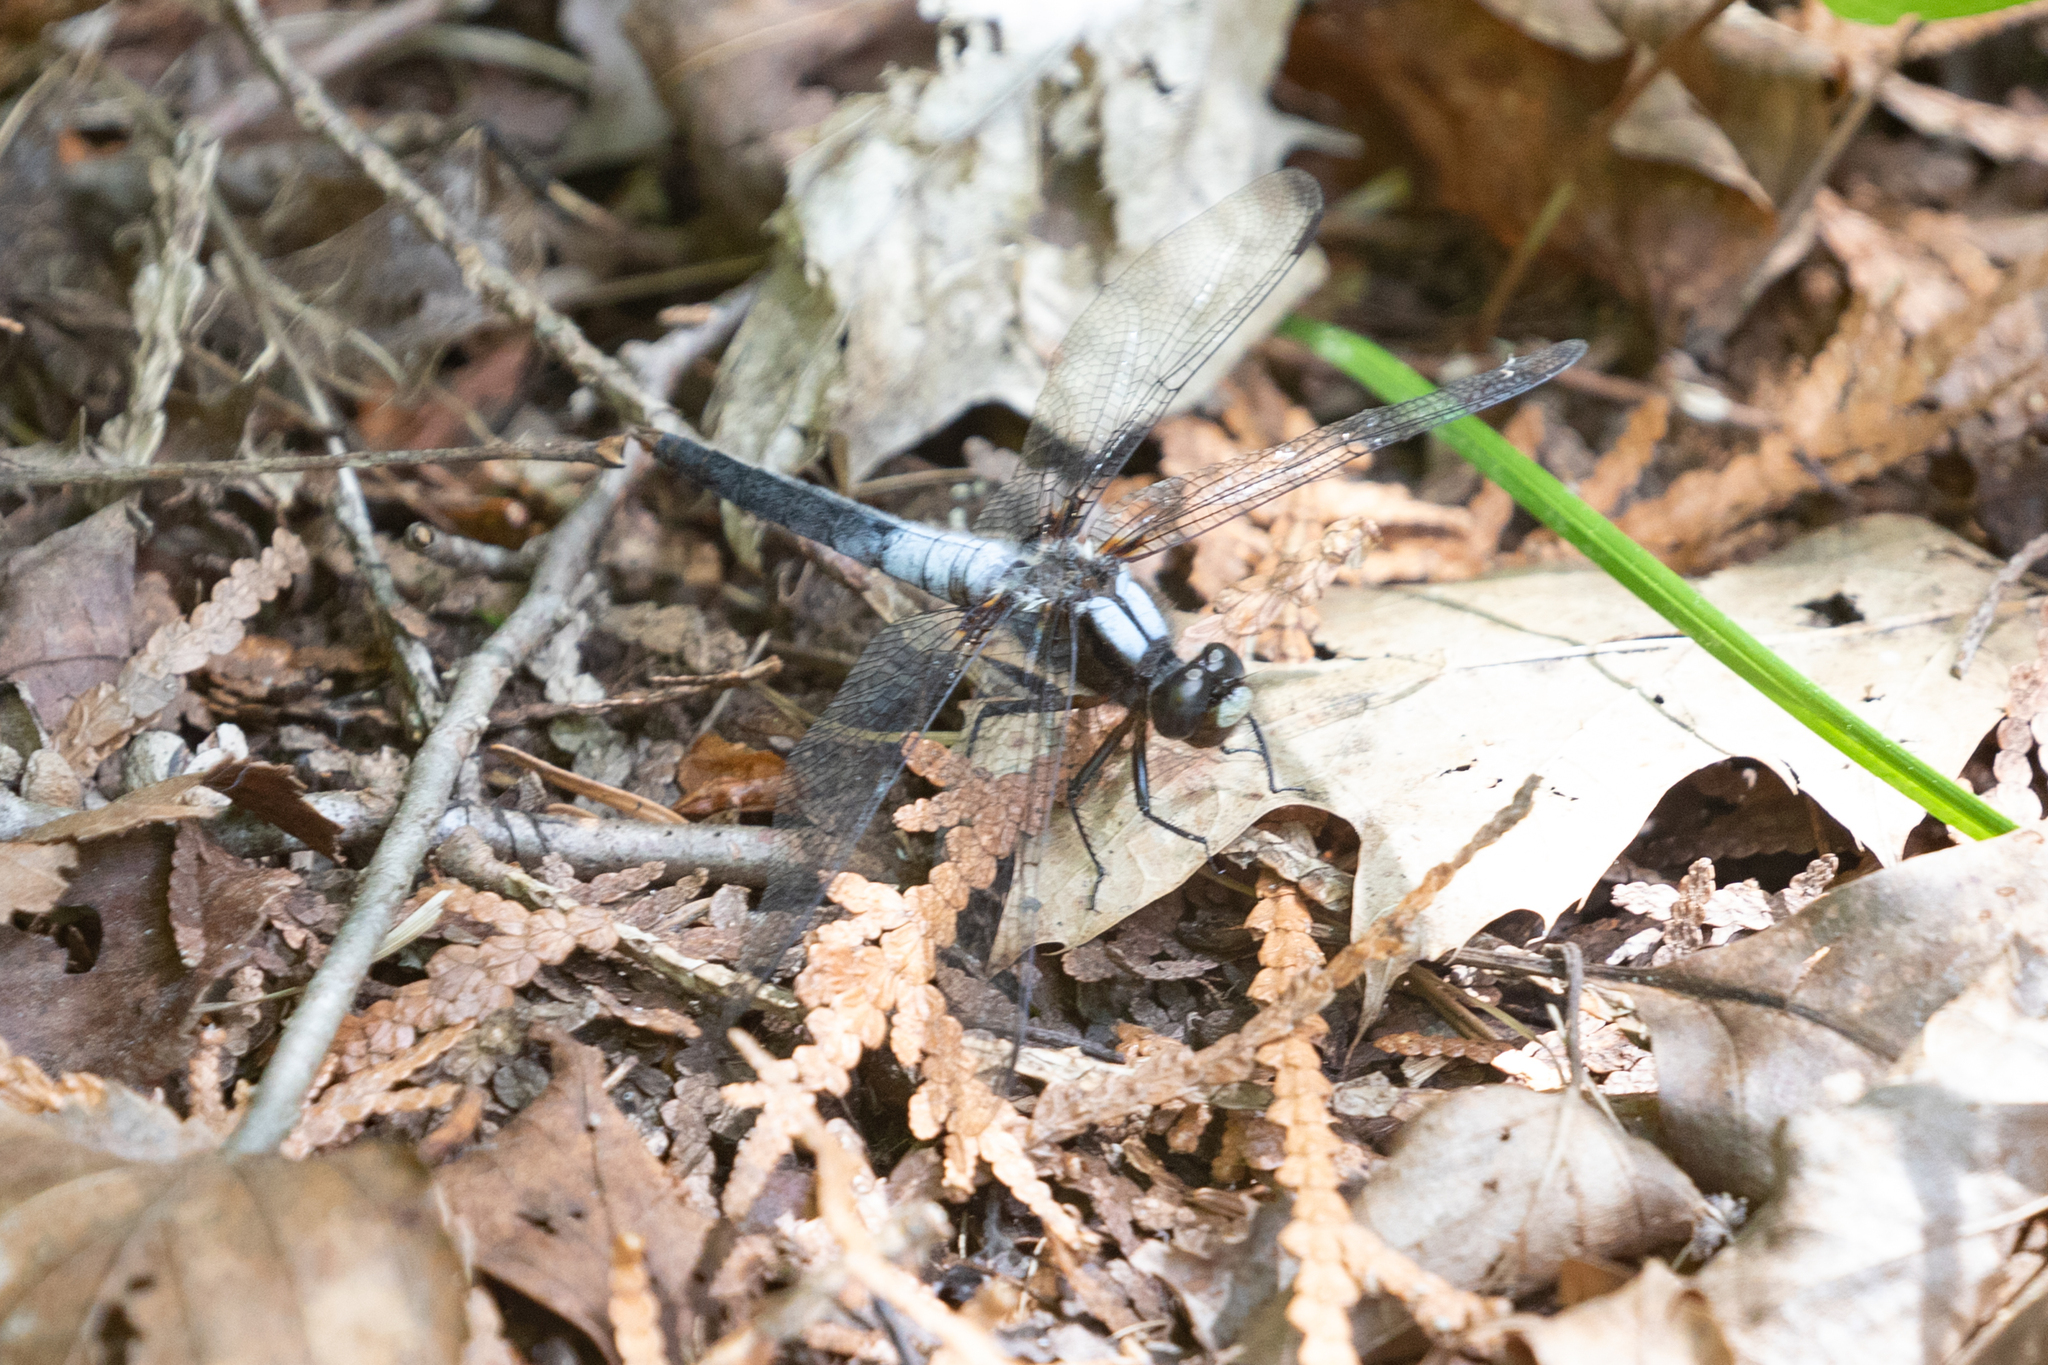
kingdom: Animalia
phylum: Arthropoda
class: Insecta
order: Odonata
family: Libellulidae
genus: Ladona
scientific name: Ladona julia
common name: Chalk-fronted corporal
